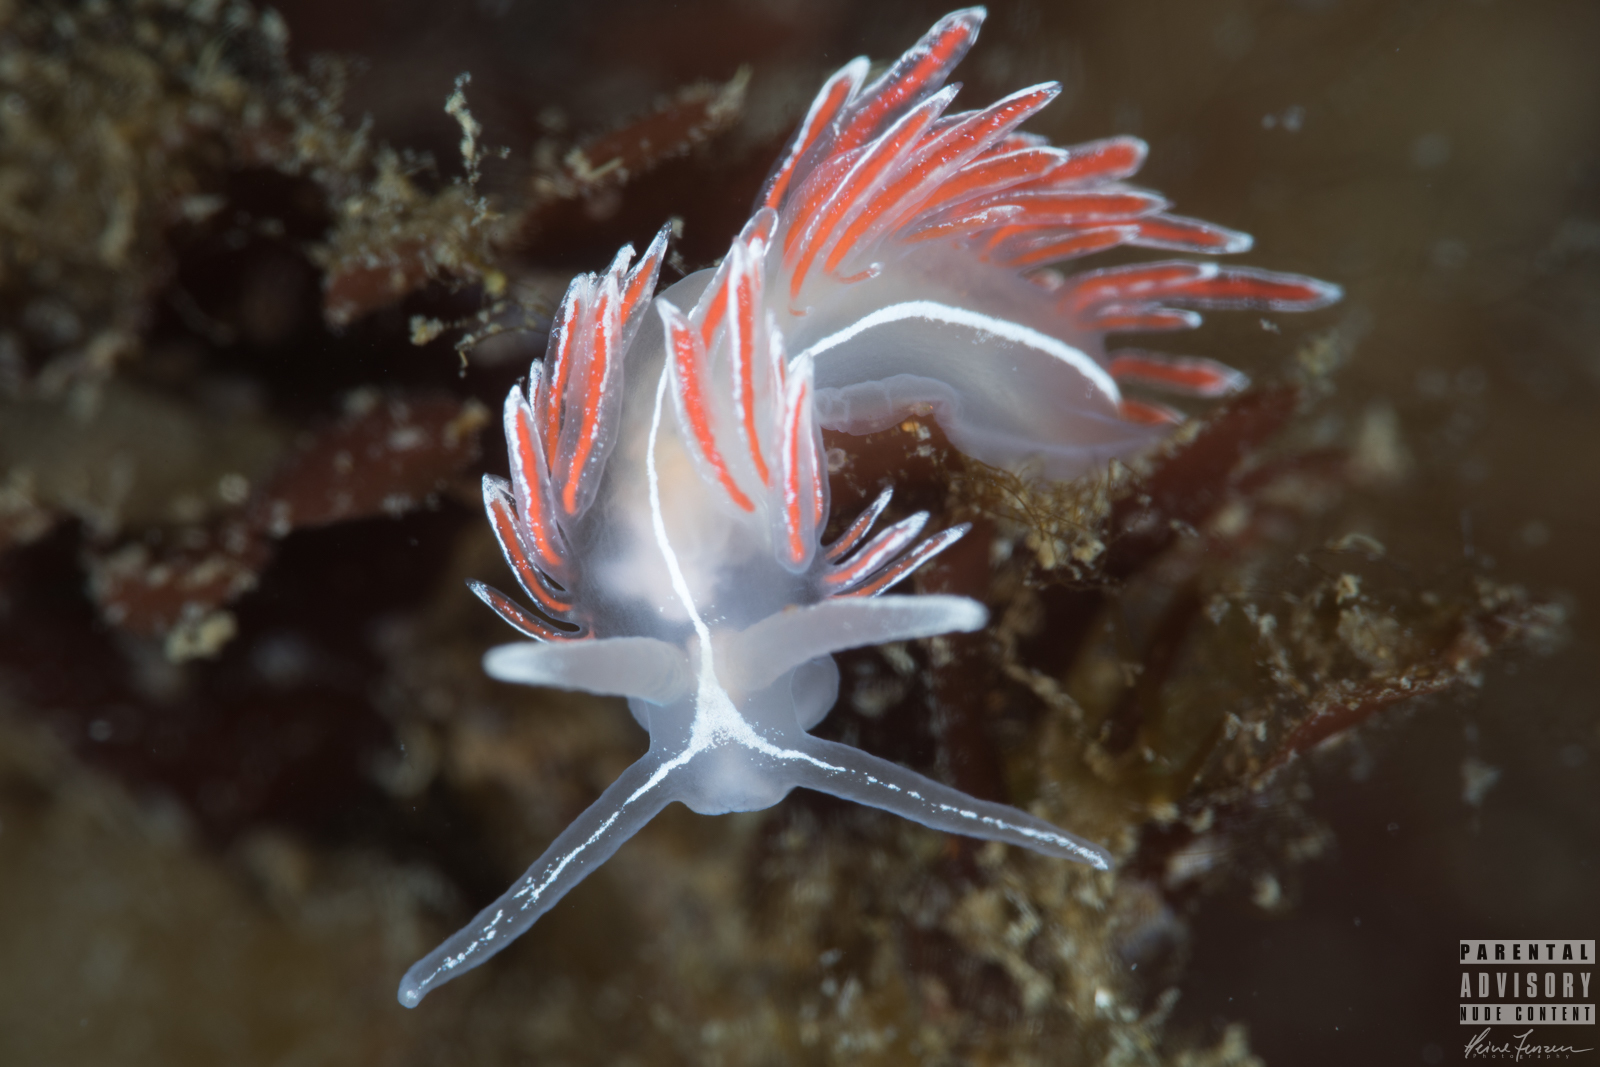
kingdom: Animalia
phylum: Mollusca
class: Gastropoda
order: Nudibranchia
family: Coryphellidae
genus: Coryphella
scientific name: Coryphella lineata
